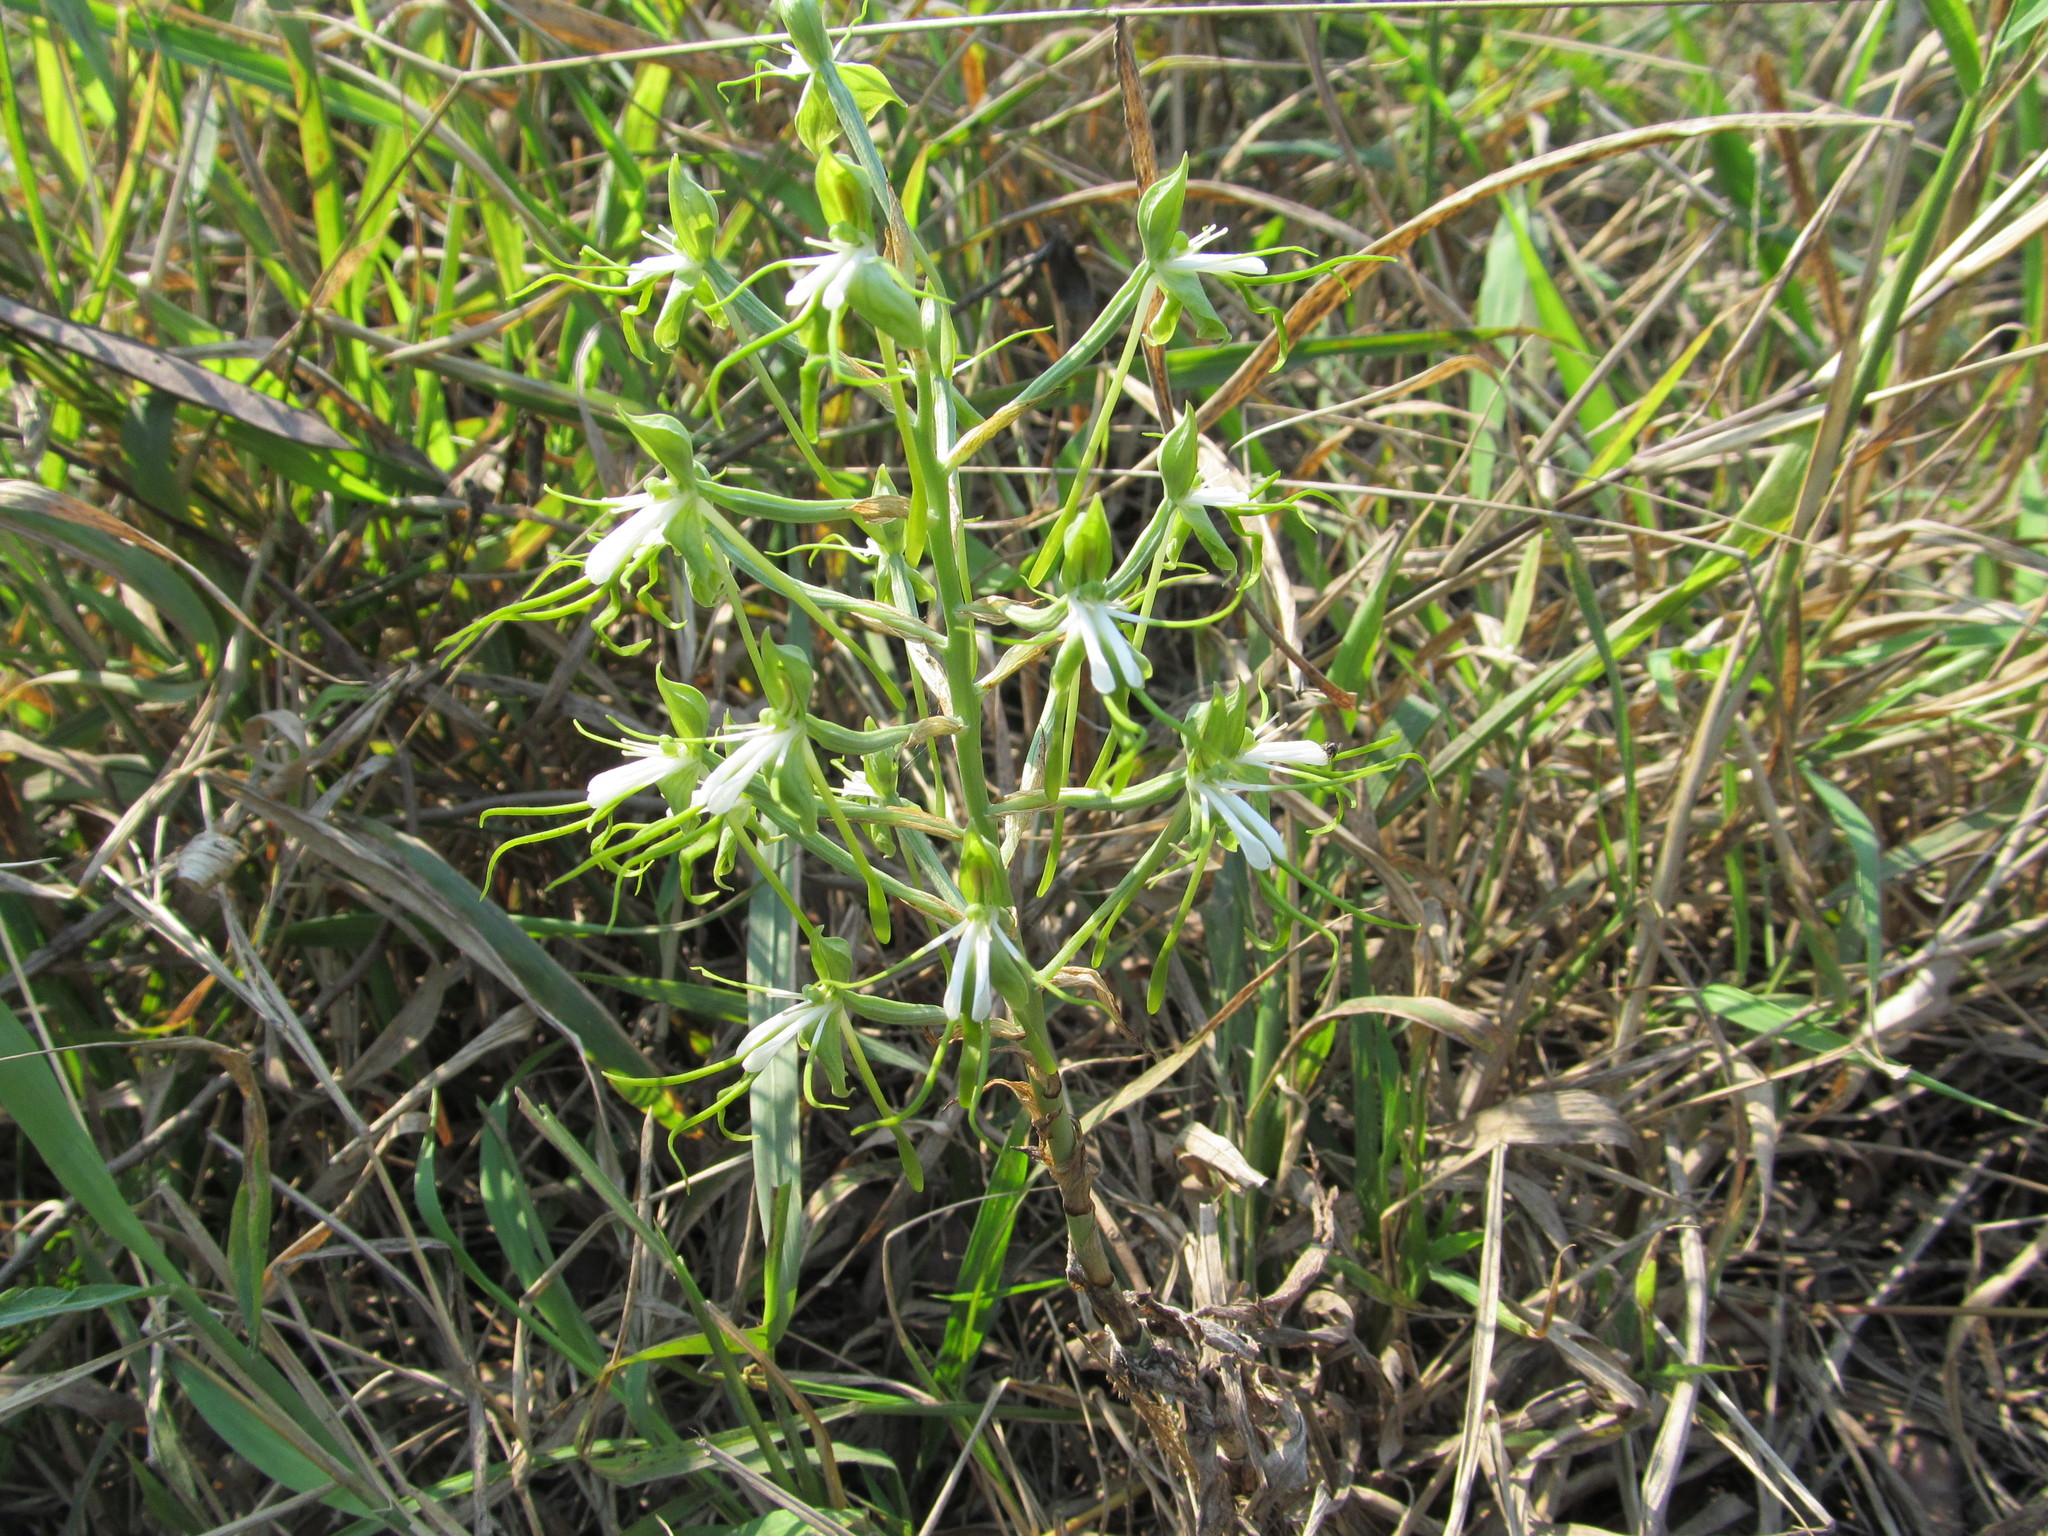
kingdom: Plantae
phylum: Tracheophyta
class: Liliopsida
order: Asparagales
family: Orchidaceae
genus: Bonatea
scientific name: Bonatea porrecta
